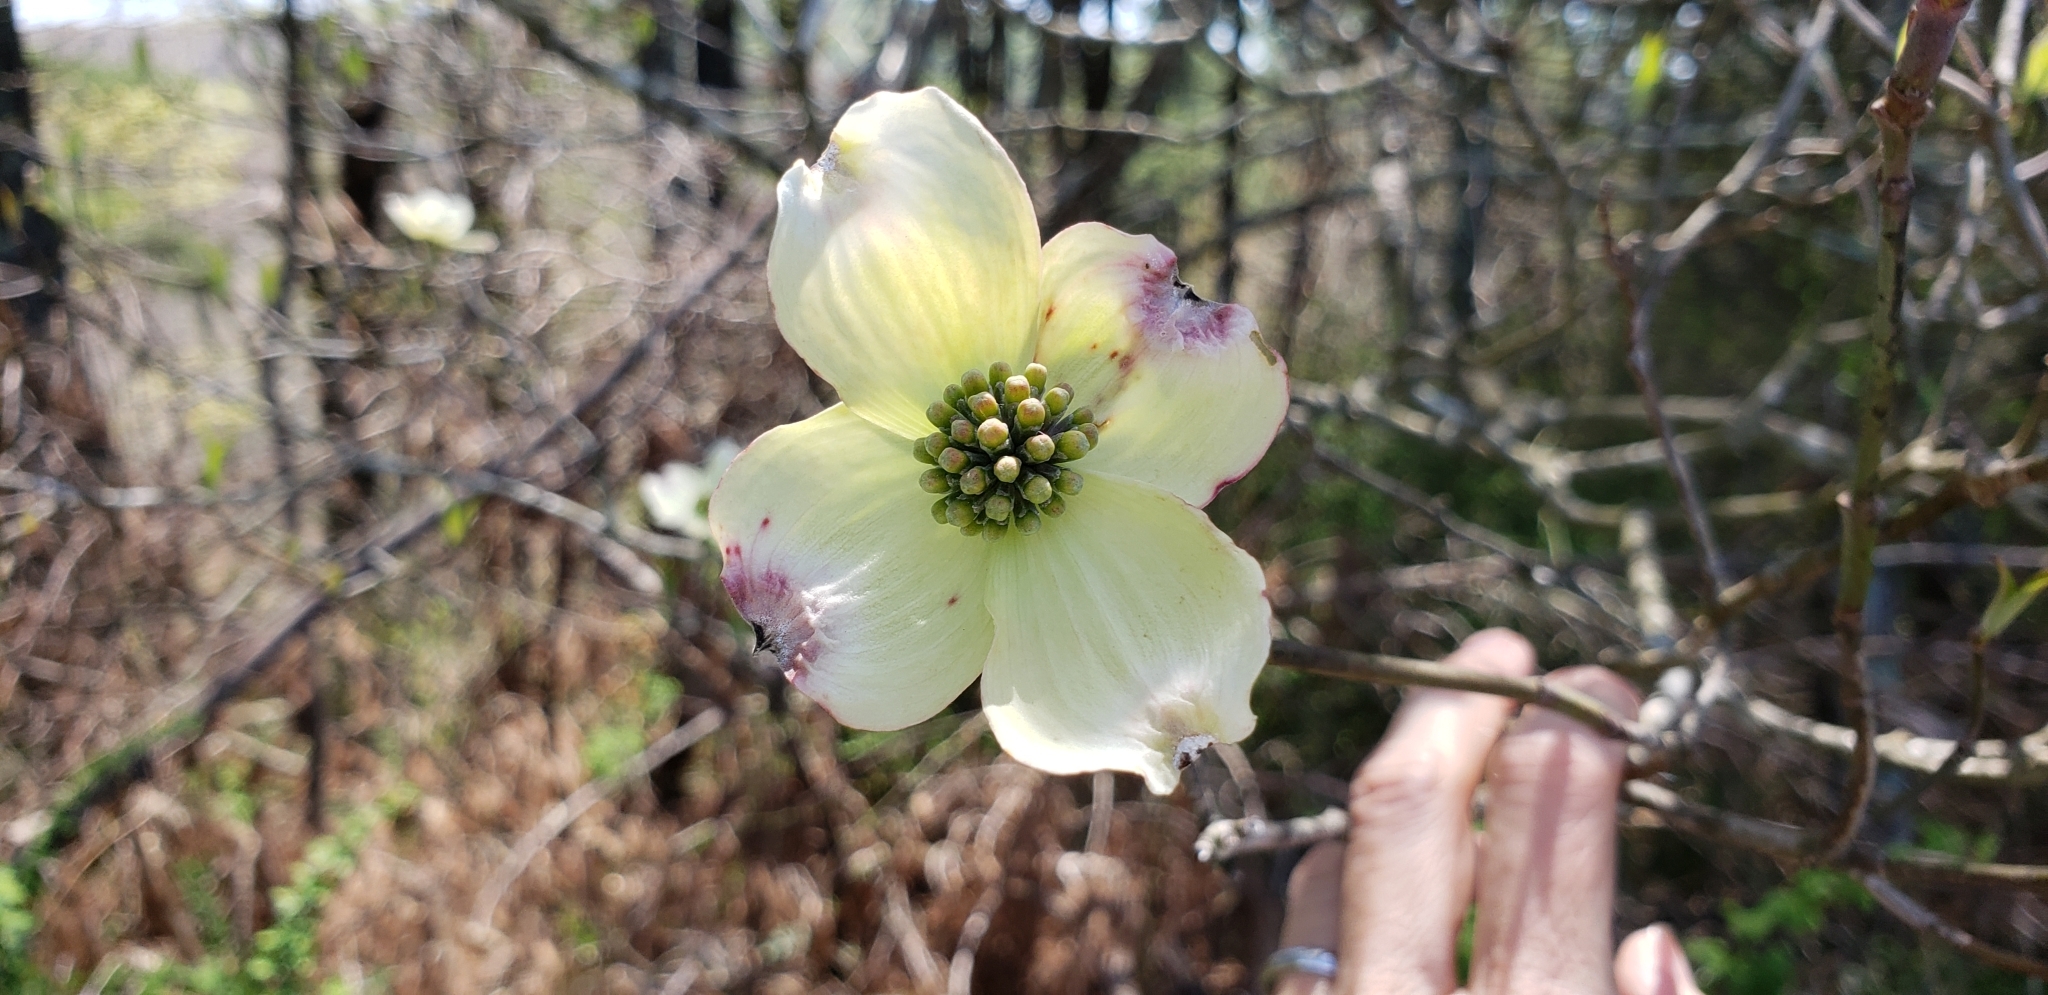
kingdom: Plantae
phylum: Tracheophyta
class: Magnoliopsida
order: Cornales
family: Cornaceae
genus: Cornus
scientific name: Cornus florida
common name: Flowering dogwood
